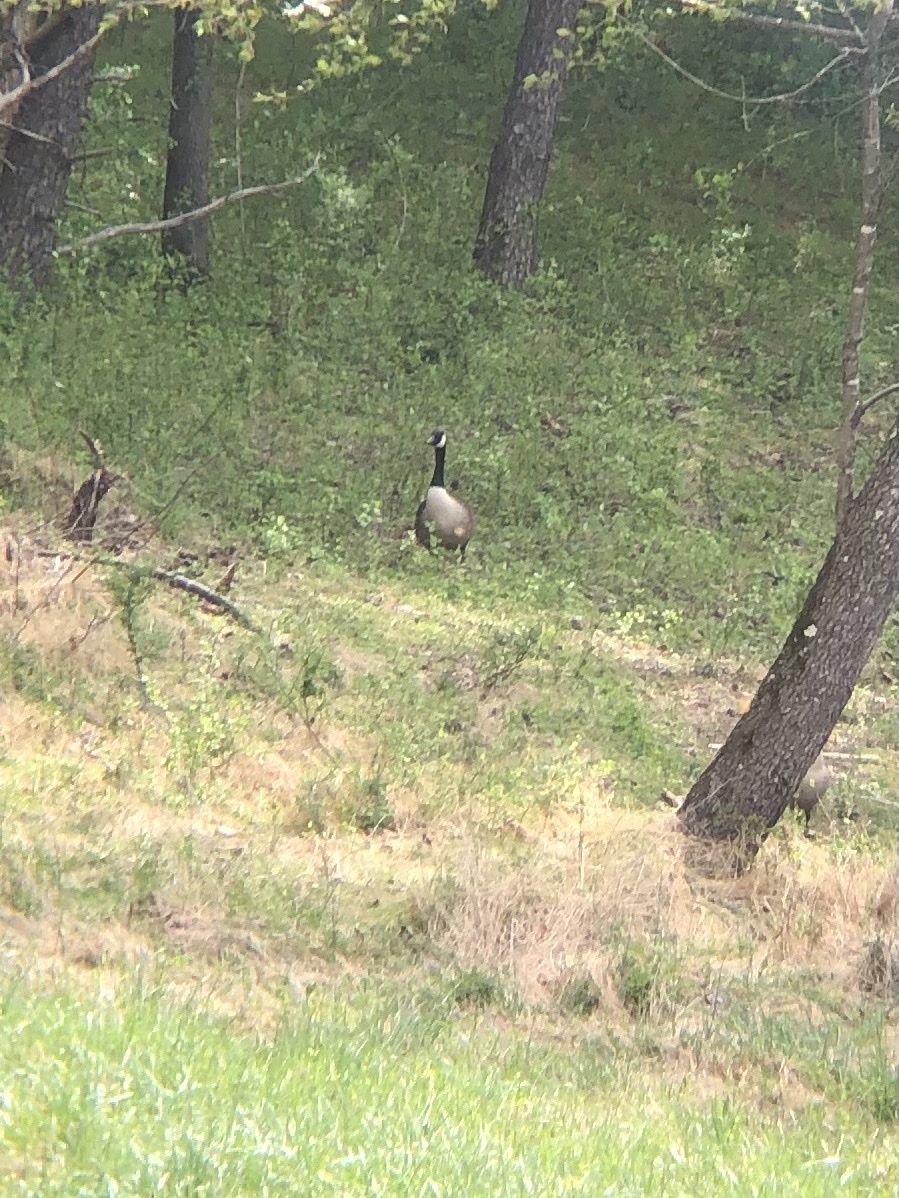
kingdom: Animalia
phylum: Chordata
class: Aves
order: Anseriformes
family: Anatidae
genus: Branta
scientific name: Branta canadensis
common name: Canada goose
